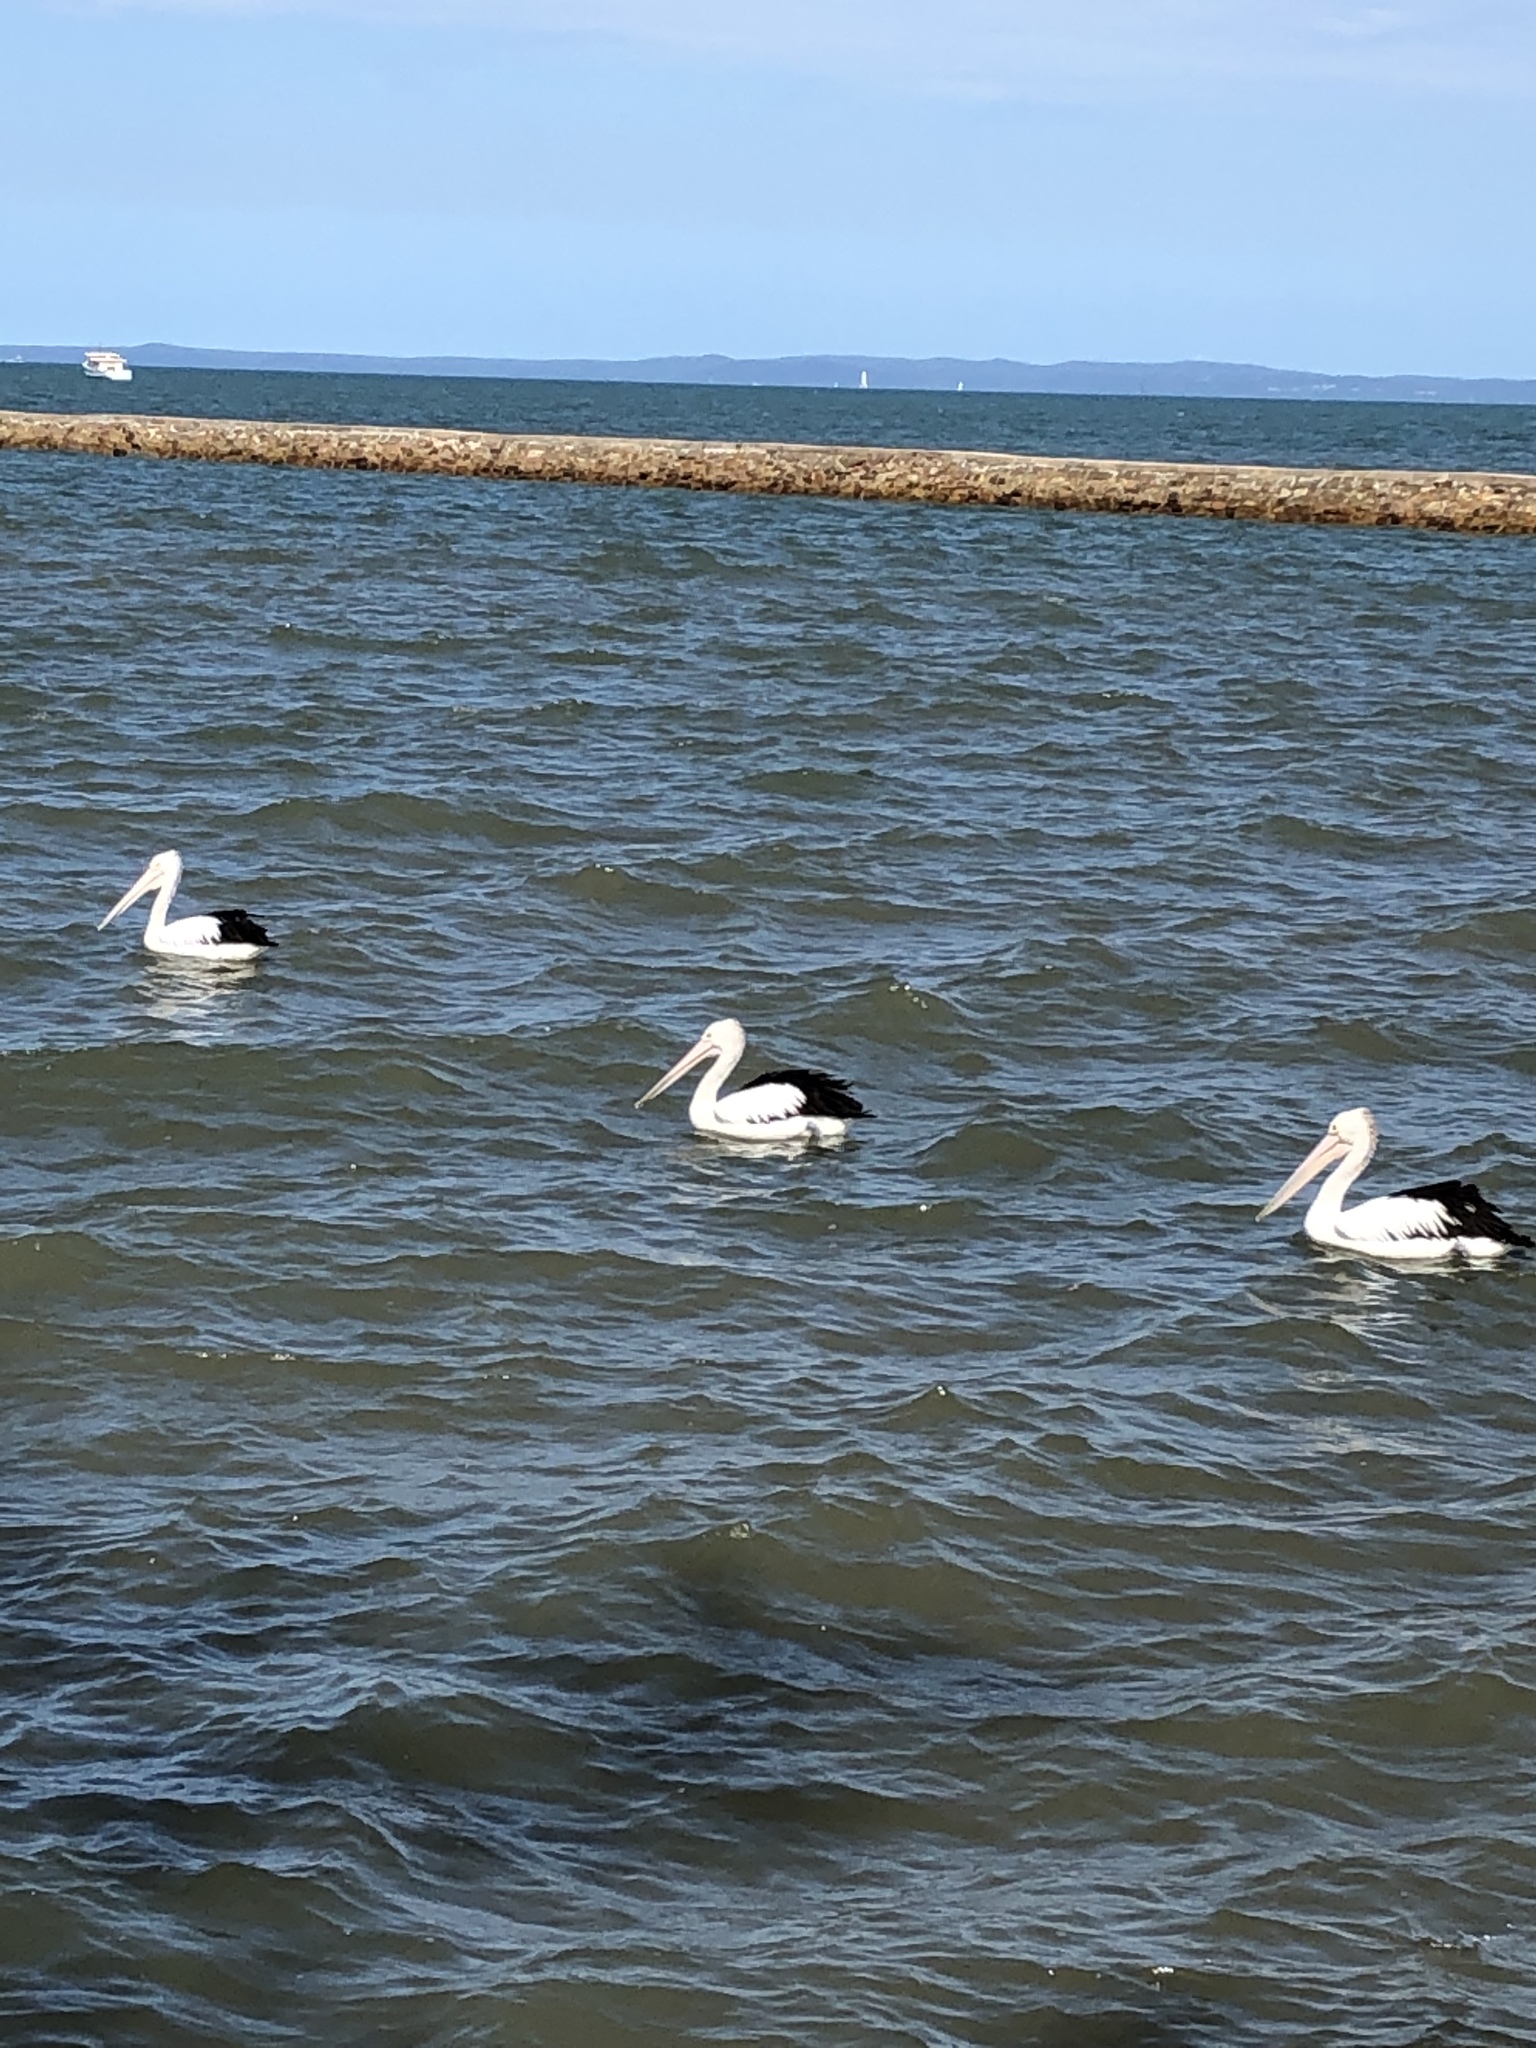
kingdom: Animalia
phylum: Chordata
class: Aves
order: Pelecaniformes
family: Pelecanidae
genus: Pelecanus
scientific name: Pelecanus conspicillatus
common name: Australian pelican
